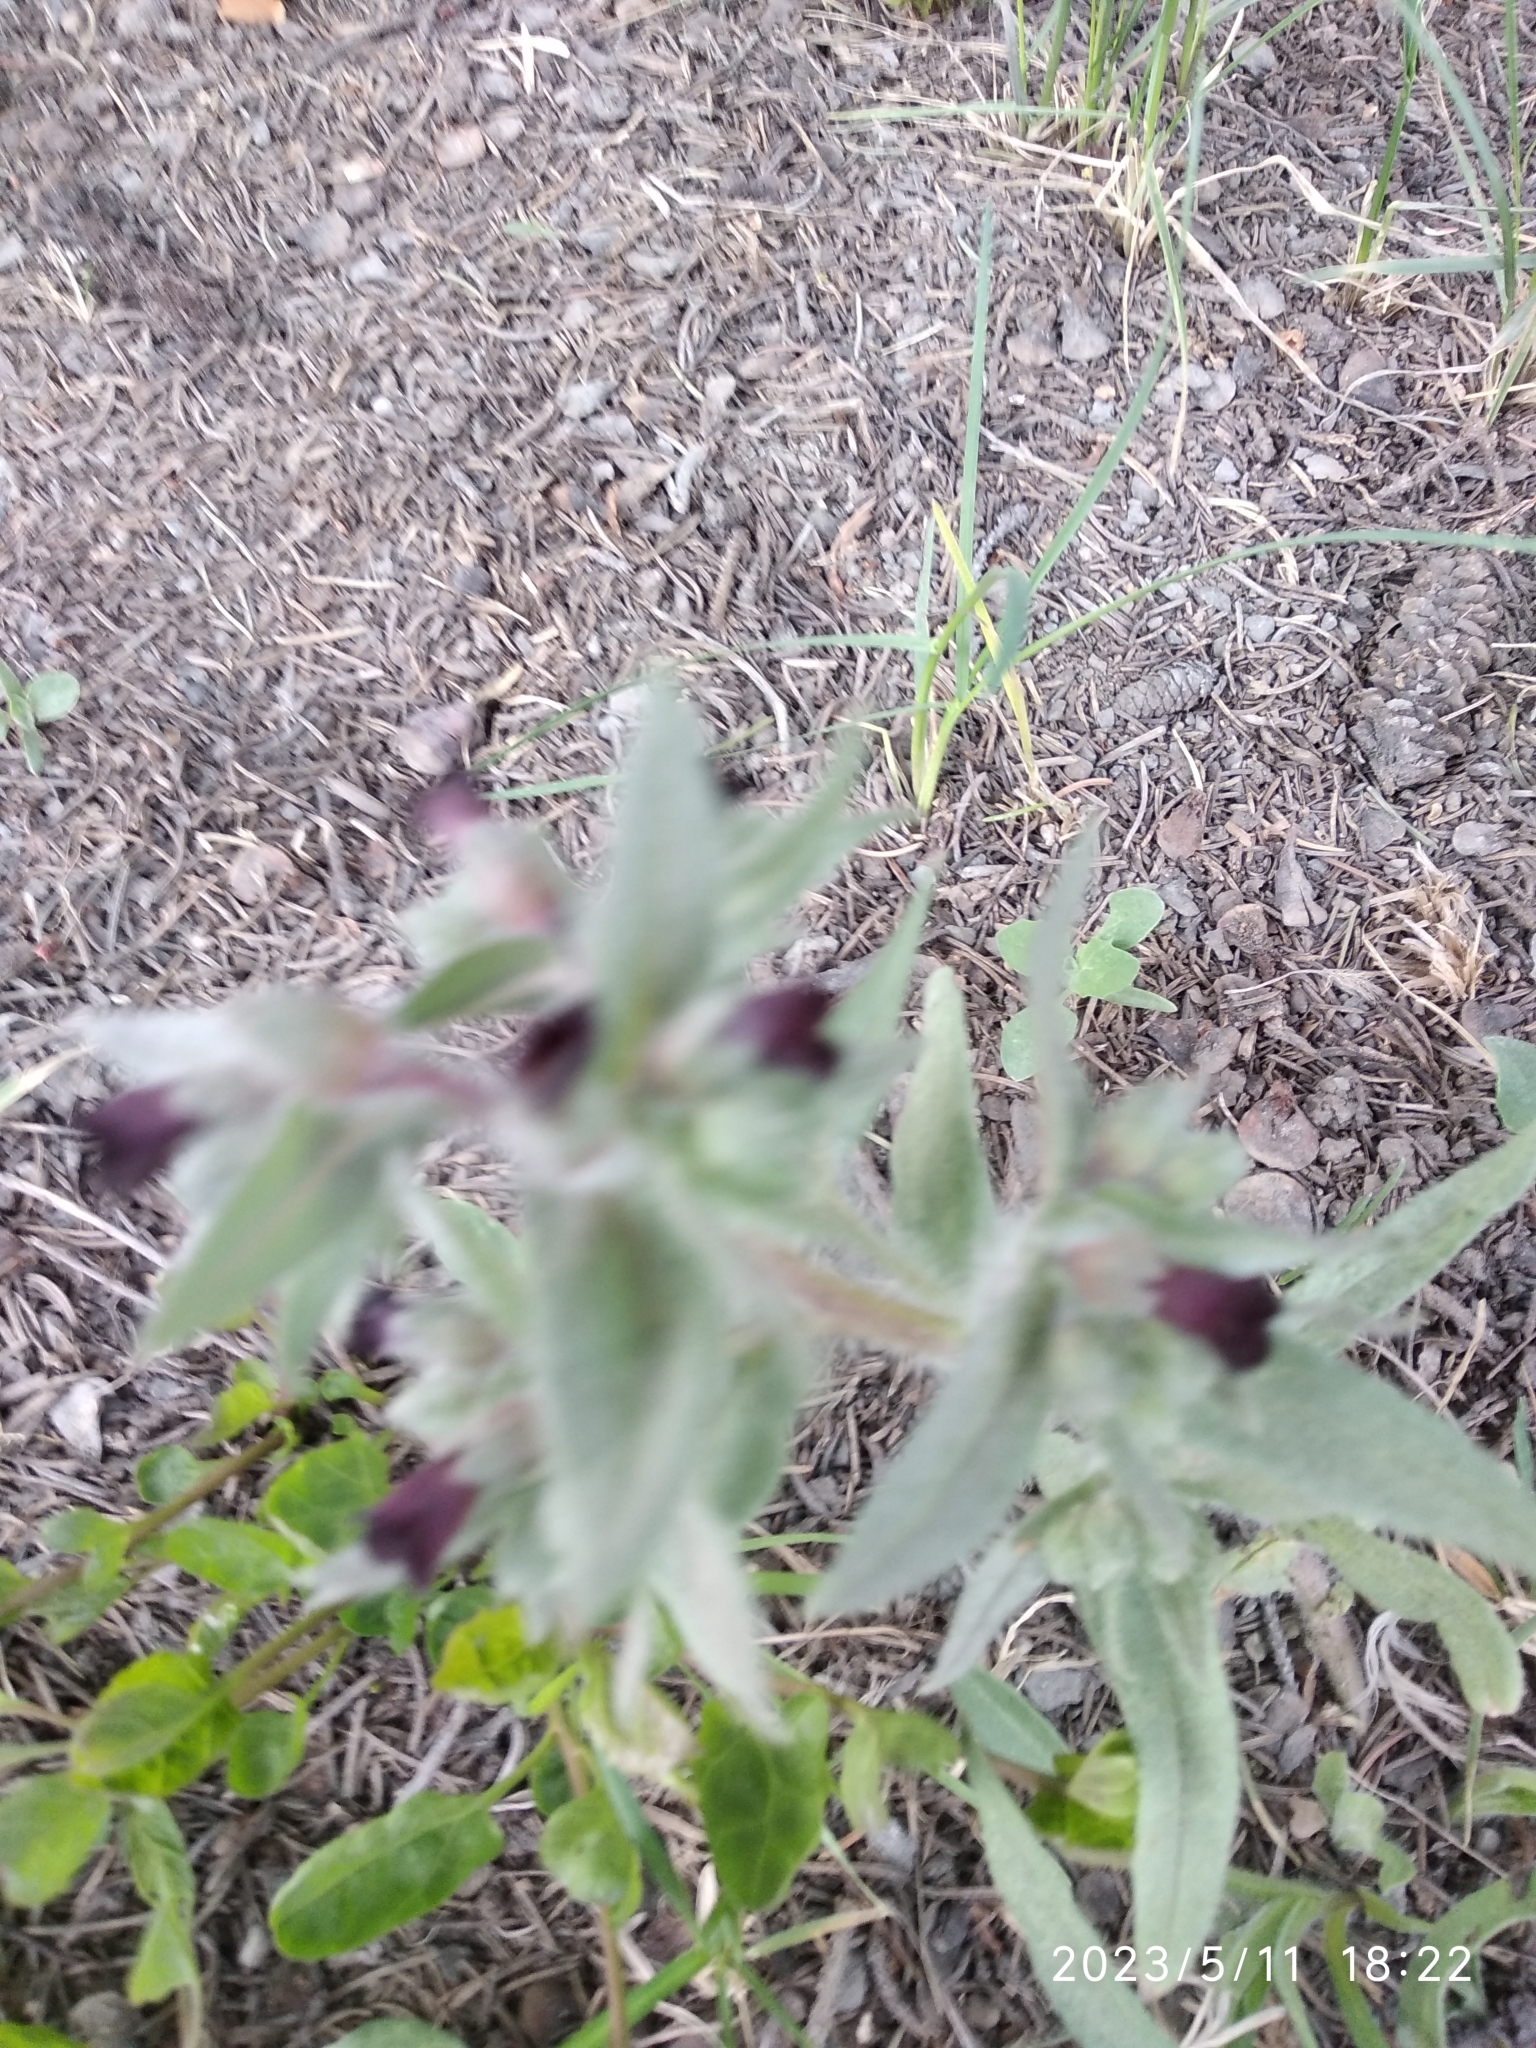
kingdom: Plantae
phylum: Tracheophyta
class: Magnoliopsida
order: Boraginales
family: Boraginaceae
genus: Nonea
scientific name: Nonea pulla
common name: Brown nonea
